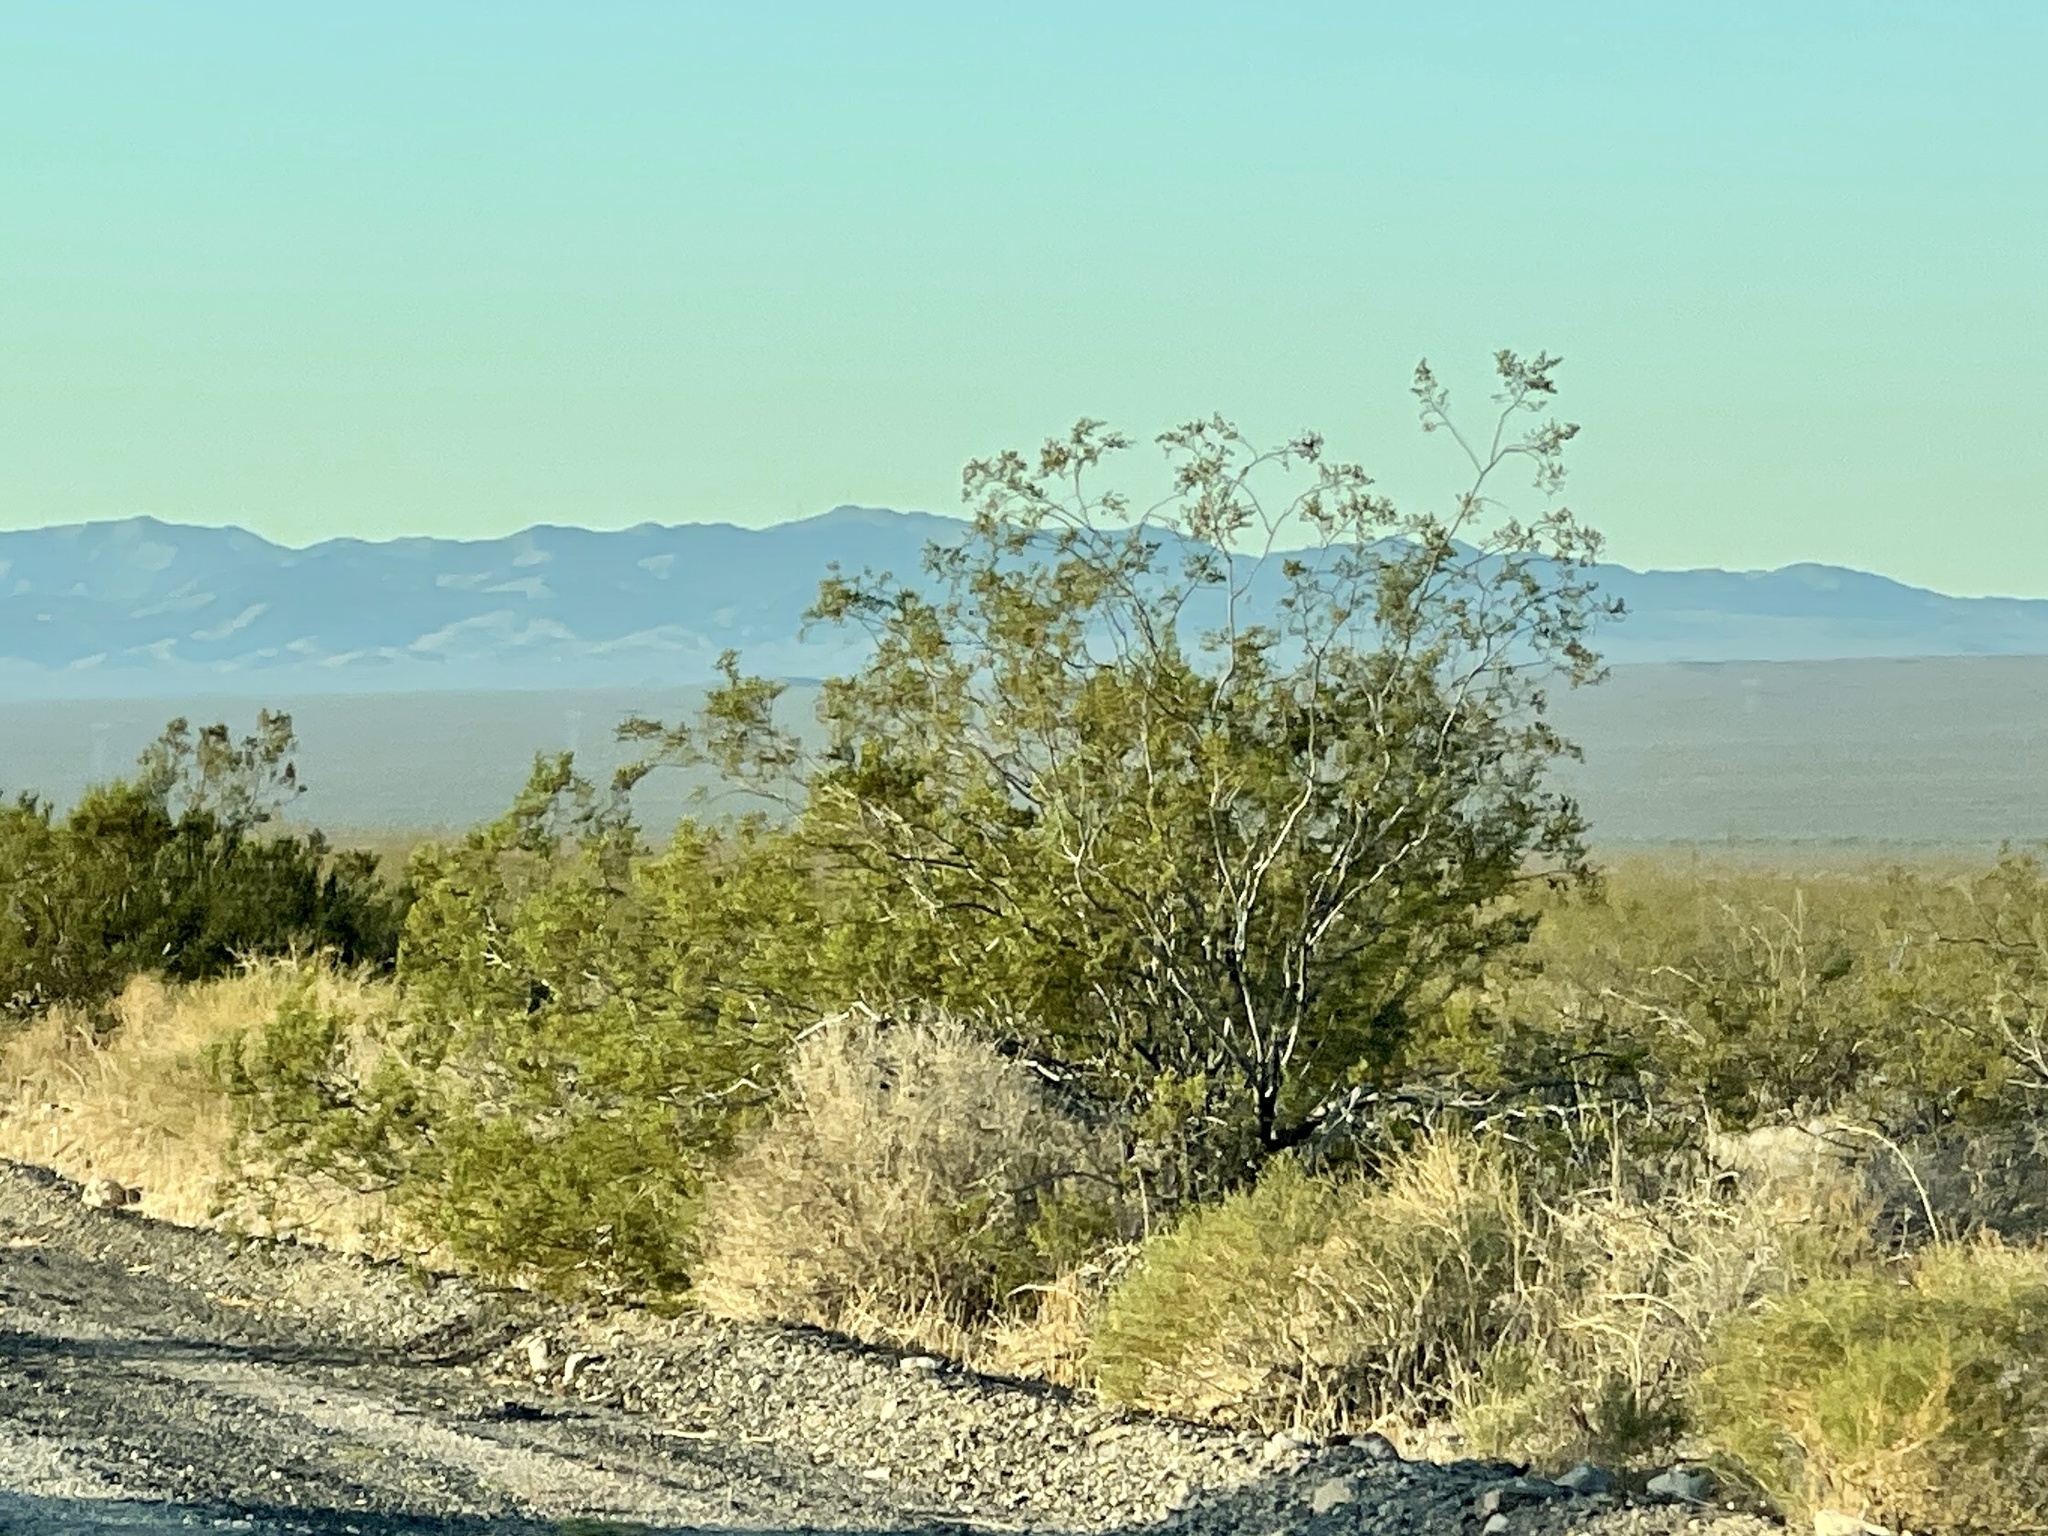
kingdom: Plantae
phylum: Tracheophyta
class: Magnoliopsida
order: Zygophyllales
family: Zygophyllaceae
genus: Larrea
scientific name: Larrea tridentata
